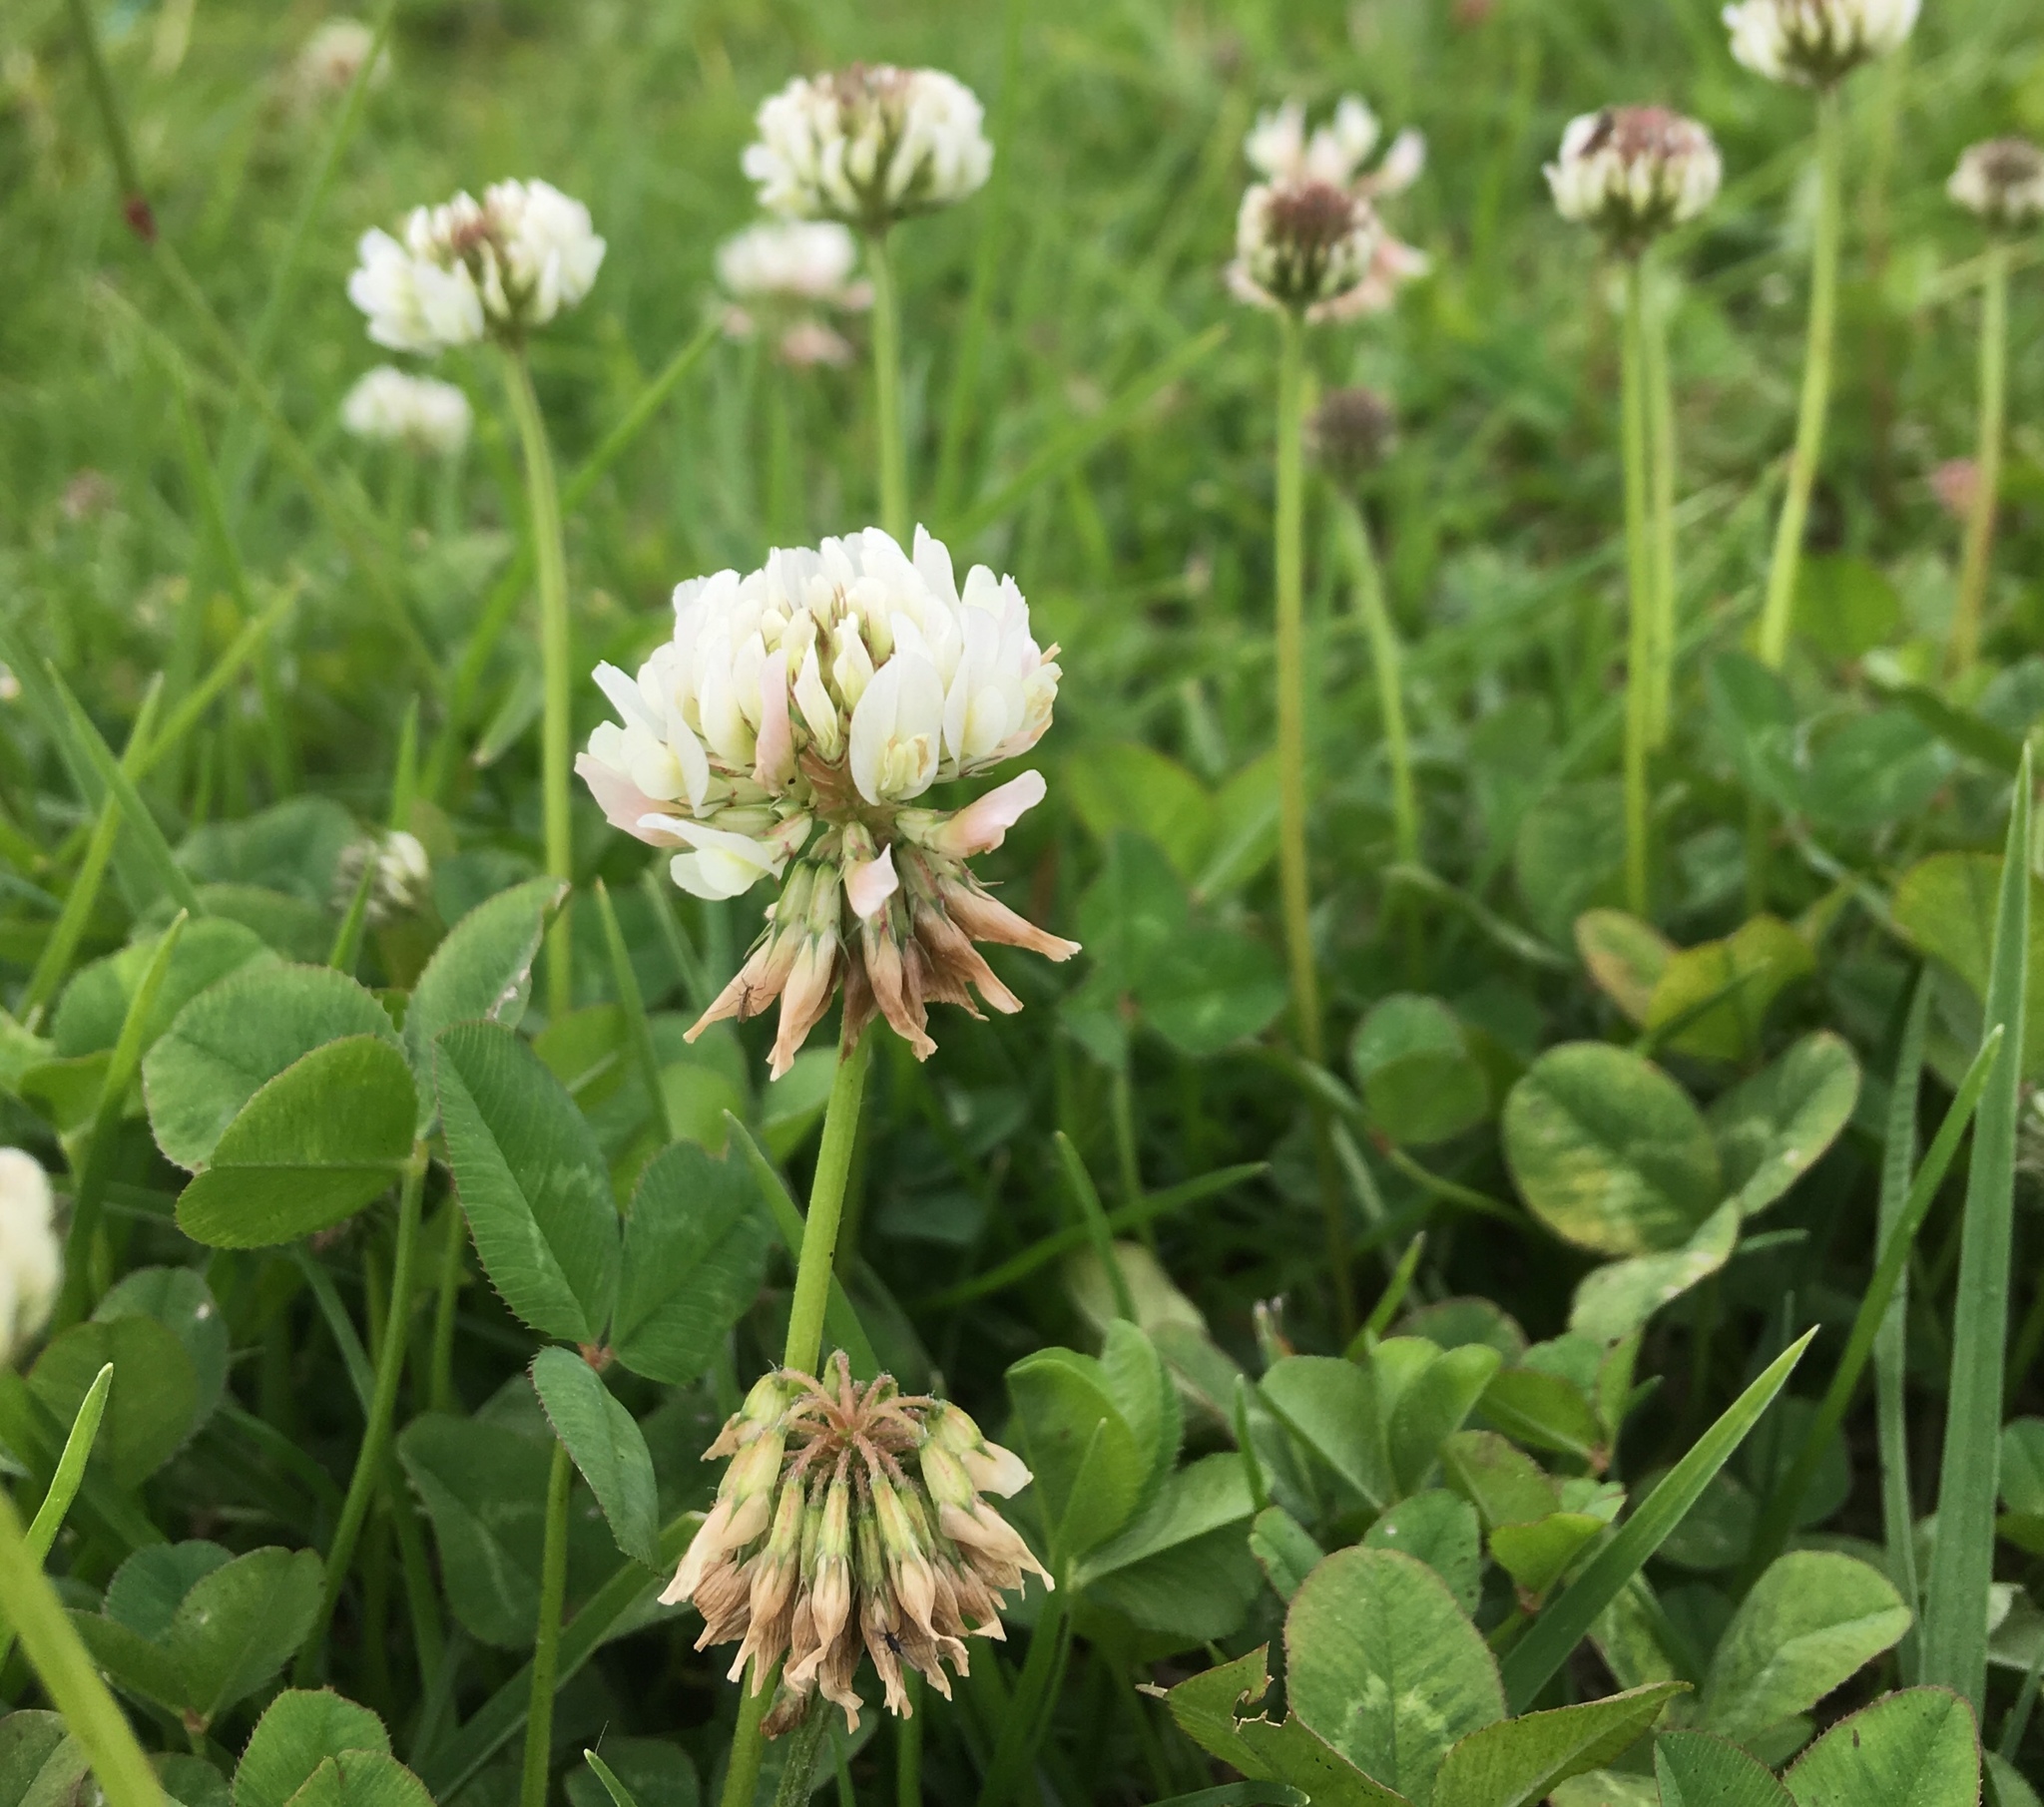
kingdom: Plantae
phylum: Tracheophyta
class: Magnoliopsida
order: Fabales
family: Fabaceae
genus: Trifolium
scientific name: Trifolium repens
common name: White clover
